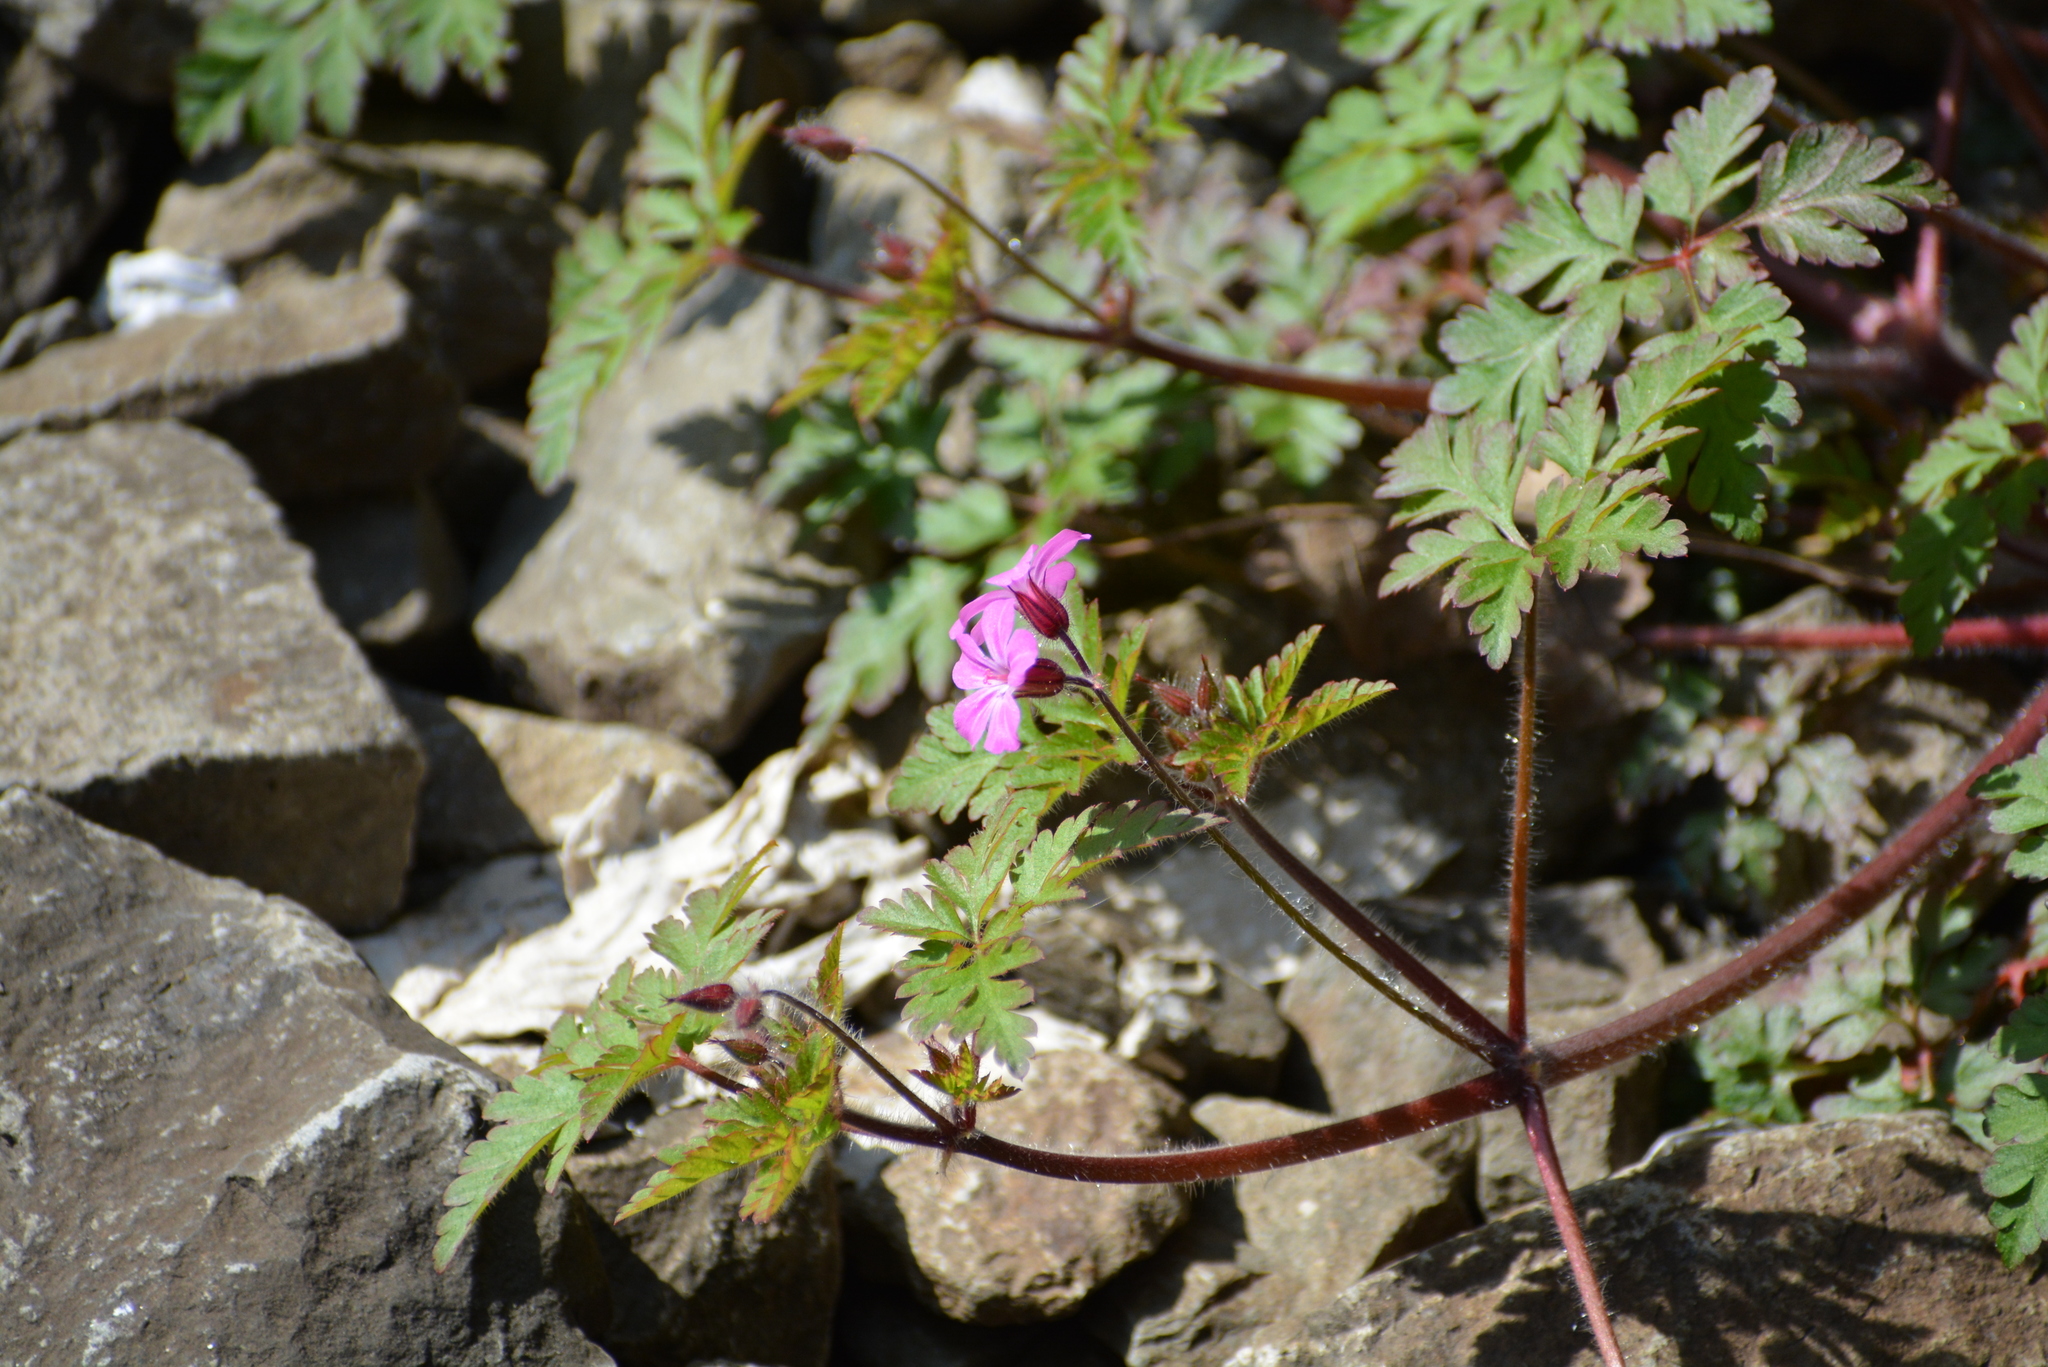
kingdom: Plantae
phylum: Tracheophyta
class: Magnoliopsida
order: Geraniales
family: Geraniaceae
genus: Geranium
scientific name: Geranium robertianum
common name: Herb-robert
